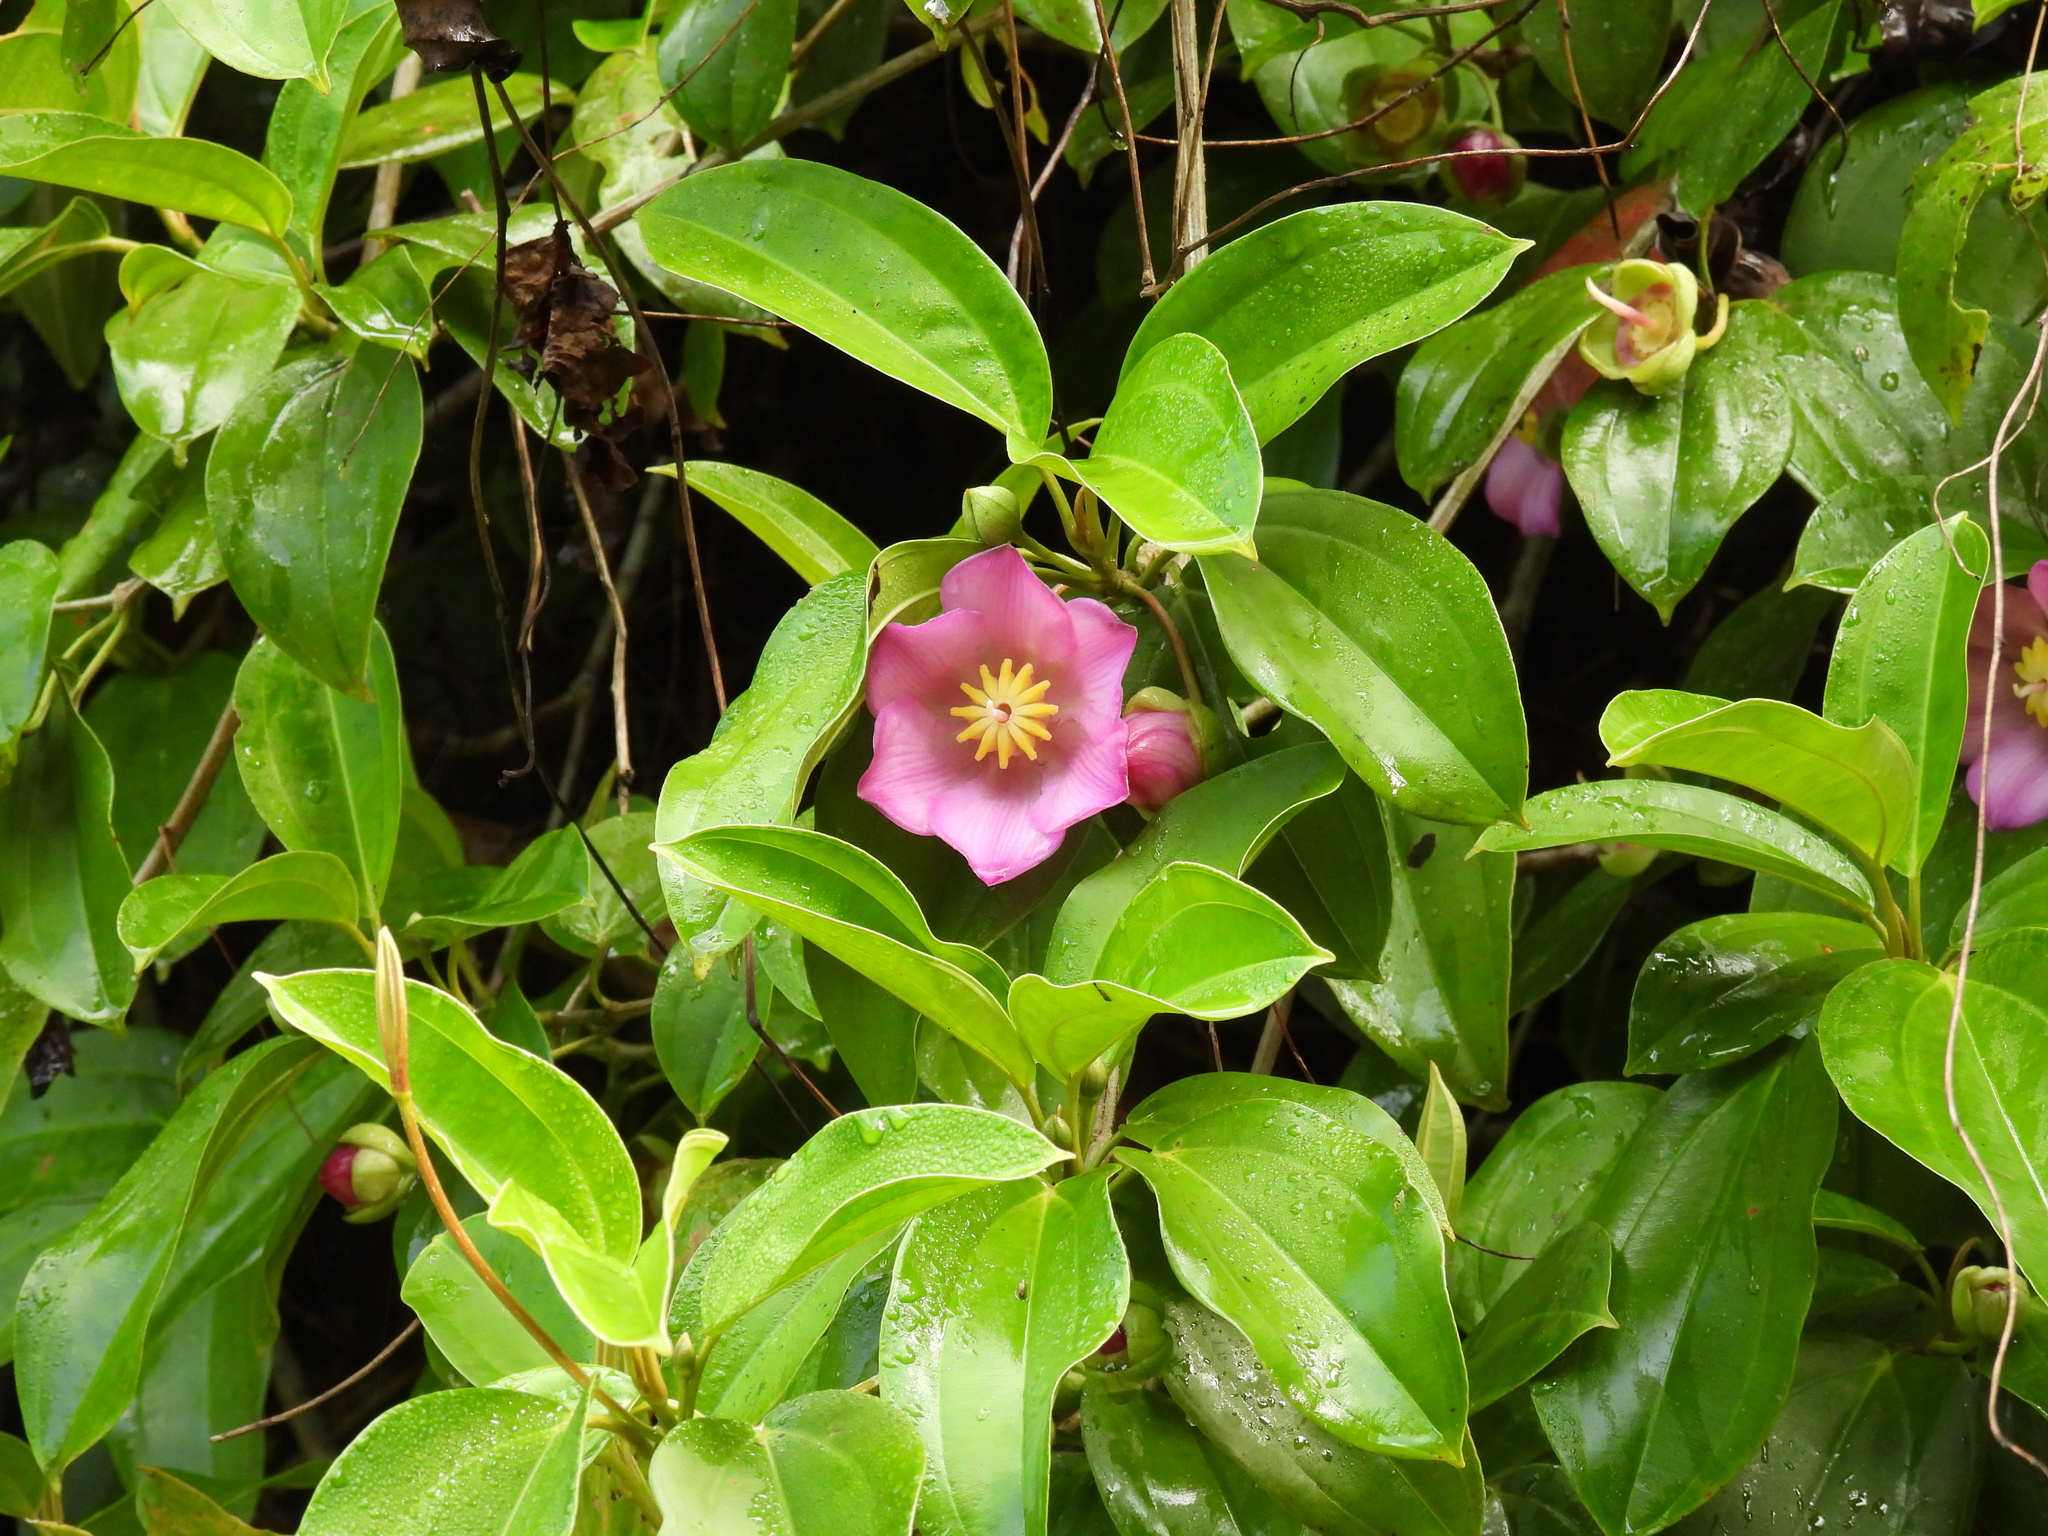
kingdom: Plantae
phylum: Tracheophyta
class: Magnoliopsida
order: Myrtales
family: Melastomataceae
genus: Blakea
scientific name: Blakea trinervia
